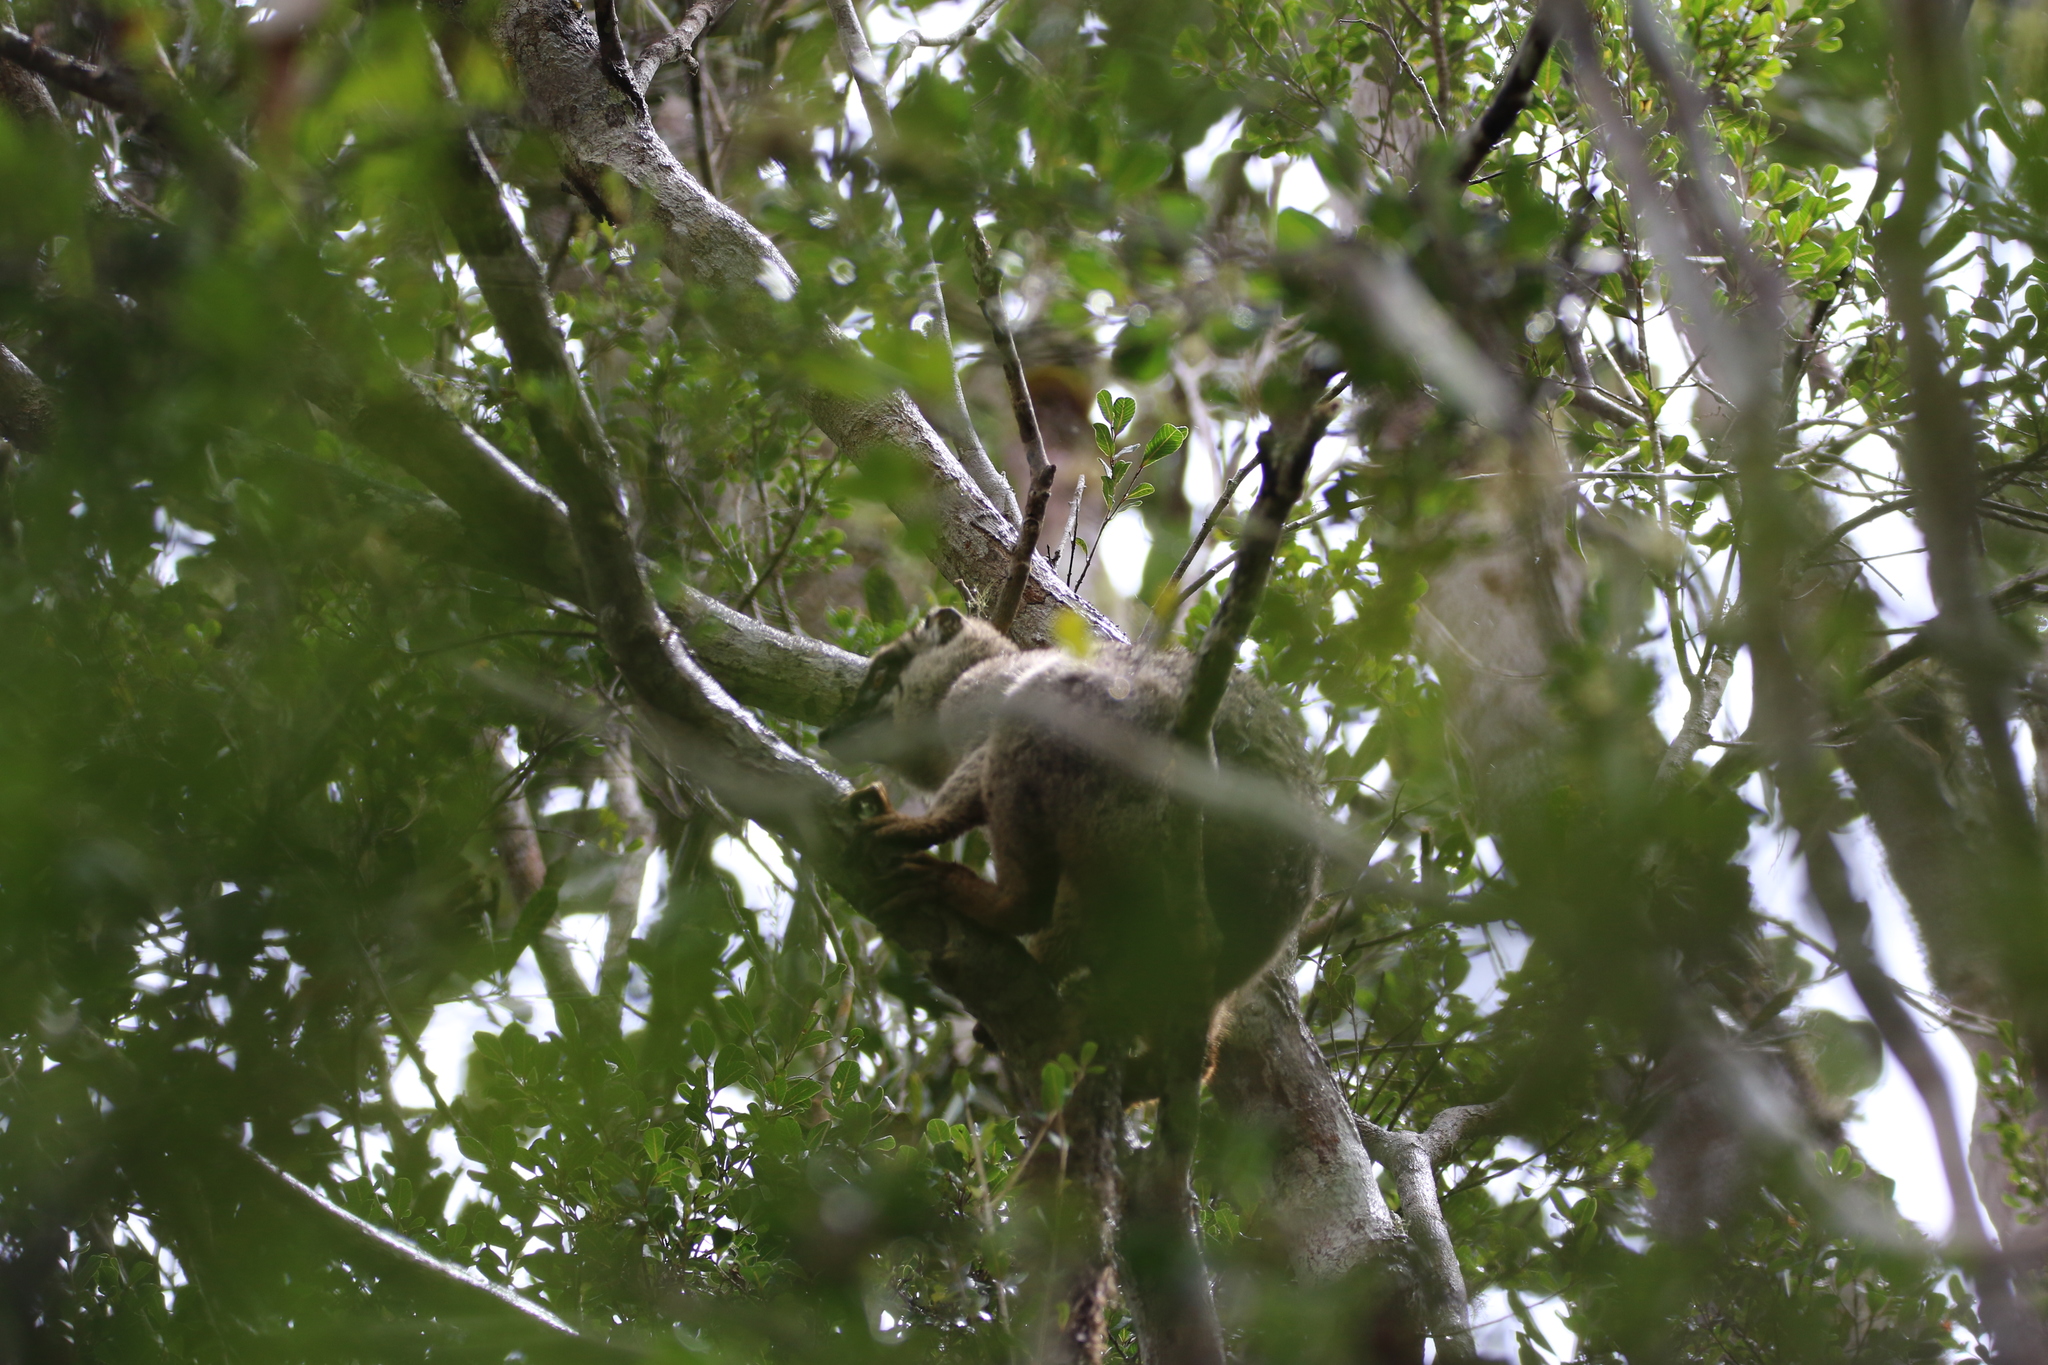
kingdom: Animalia
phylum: Chordata
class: Mammalia
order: Primates
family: Lemuridae
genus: Eulemur
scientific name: Eulemur fulvus
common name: Brown lemur
